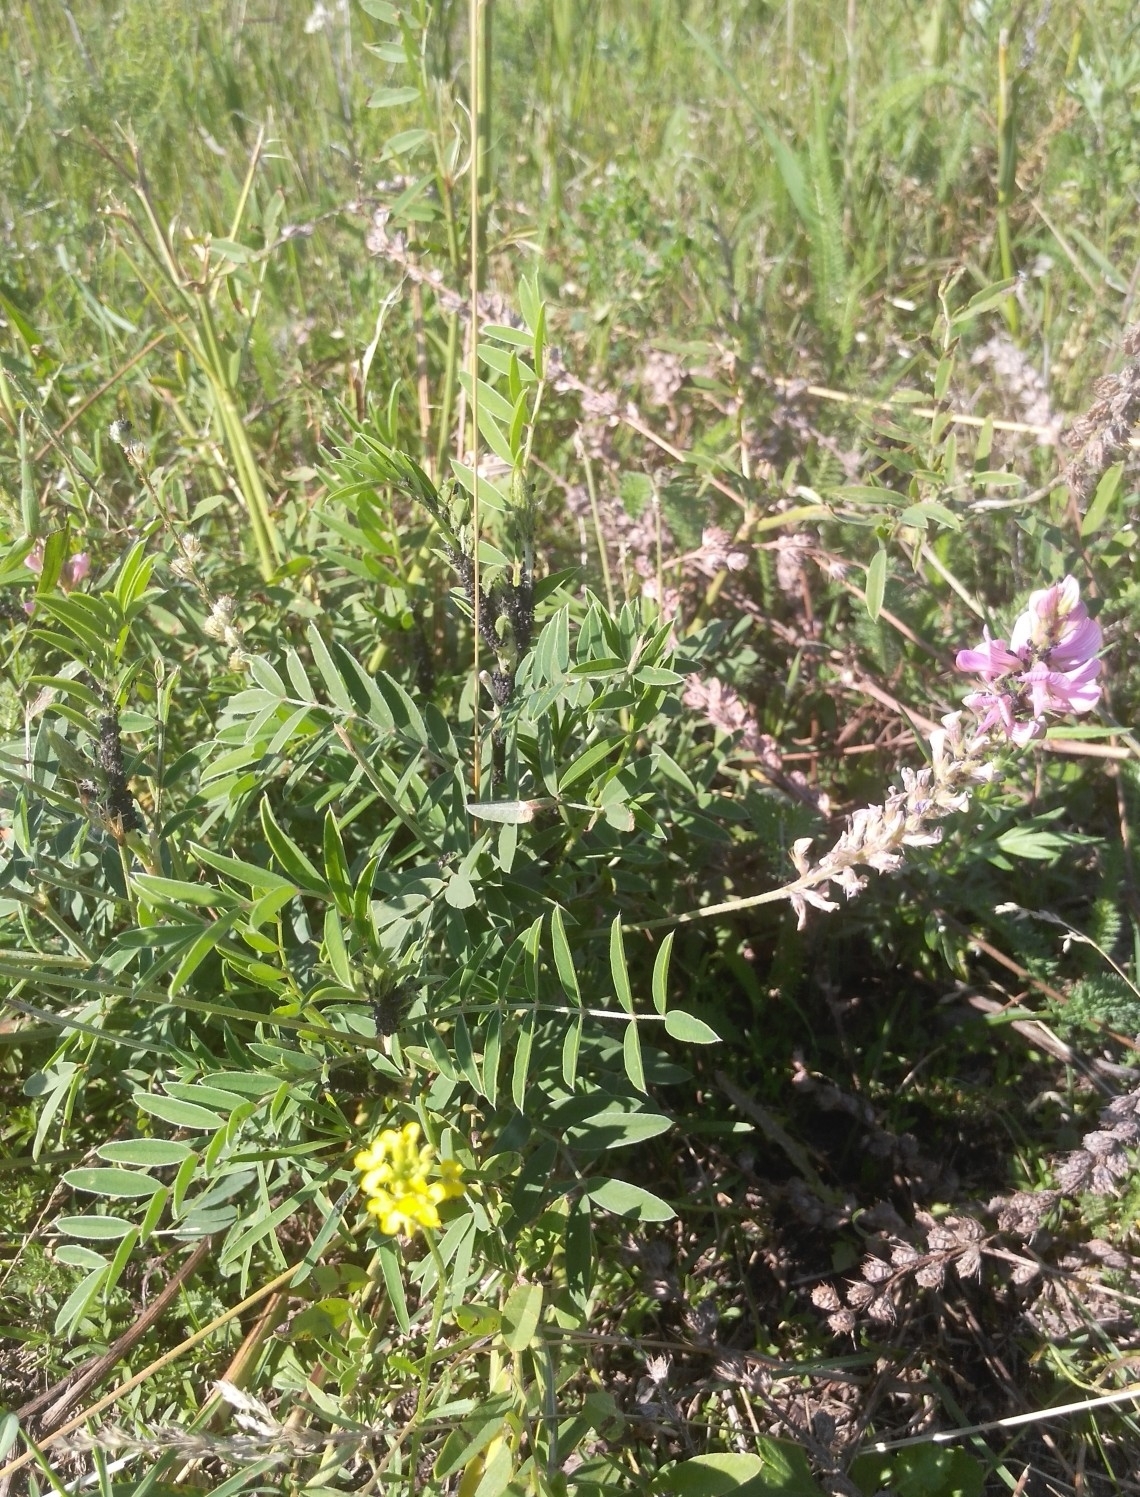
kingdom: Plantae
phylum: Tracheophyta
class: Magnoliopsida
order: Fabales
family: Fabaceae
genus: Onobrychis
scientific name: Onobrychis arenaria
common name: Sand esparcet
